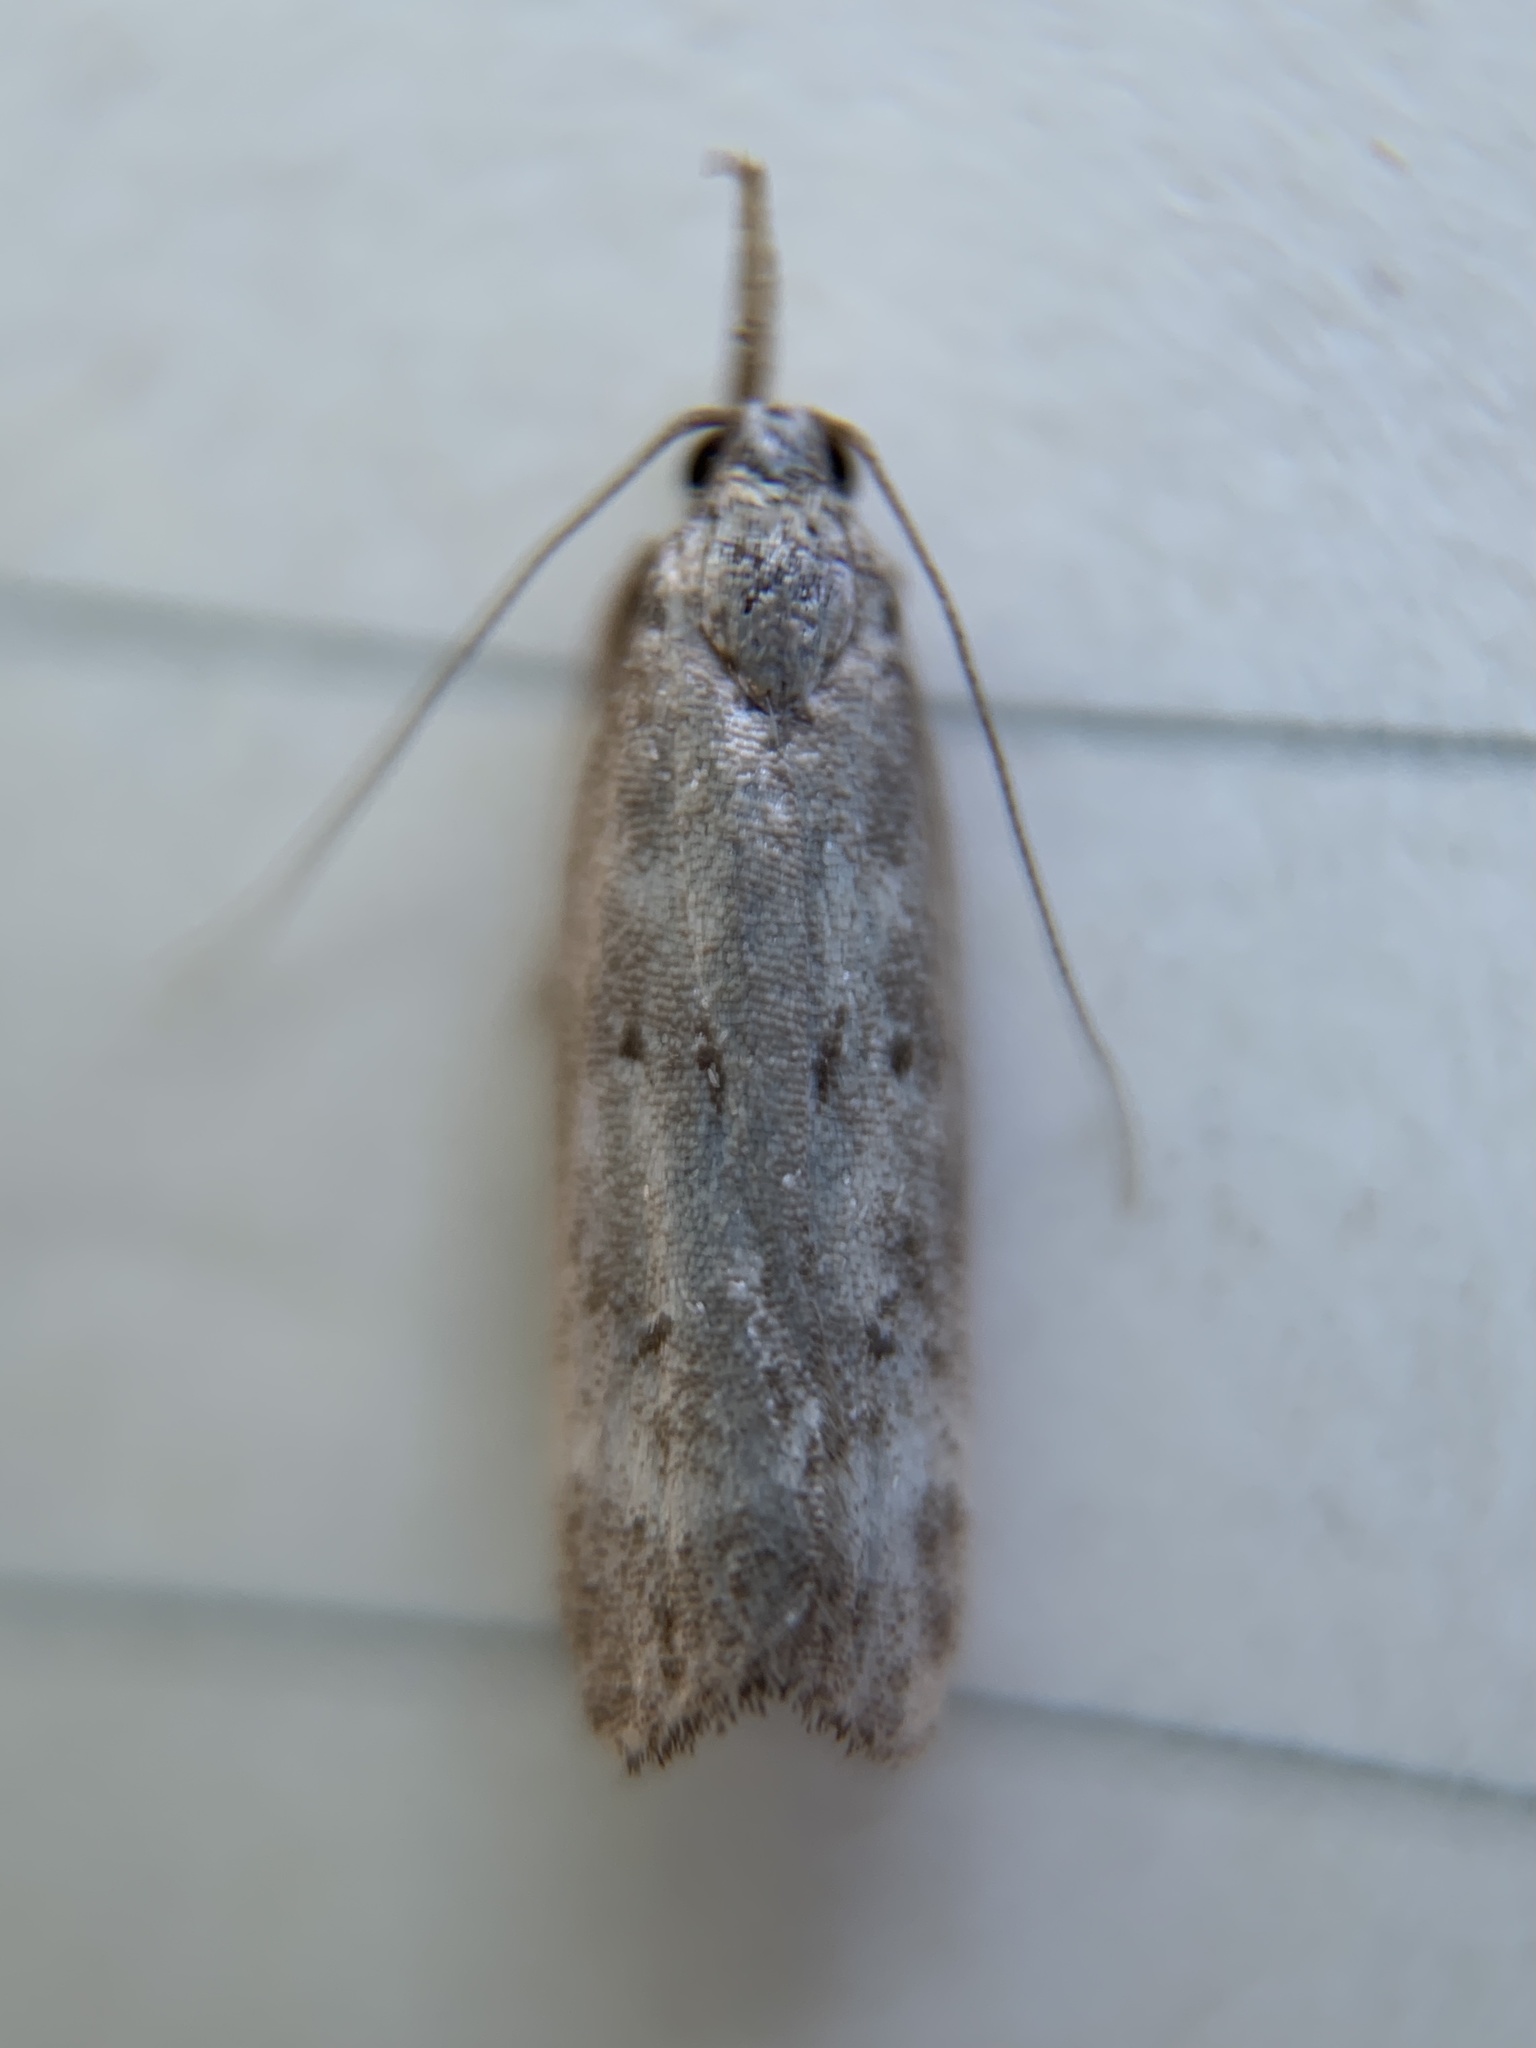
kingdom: Animalia
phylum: Arthropoda
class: Insecta
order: Lepidoptera
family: Gelechiidae
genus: Dichomeris
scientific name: Dichomeris inversella
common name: Inverse dichomeris moth
